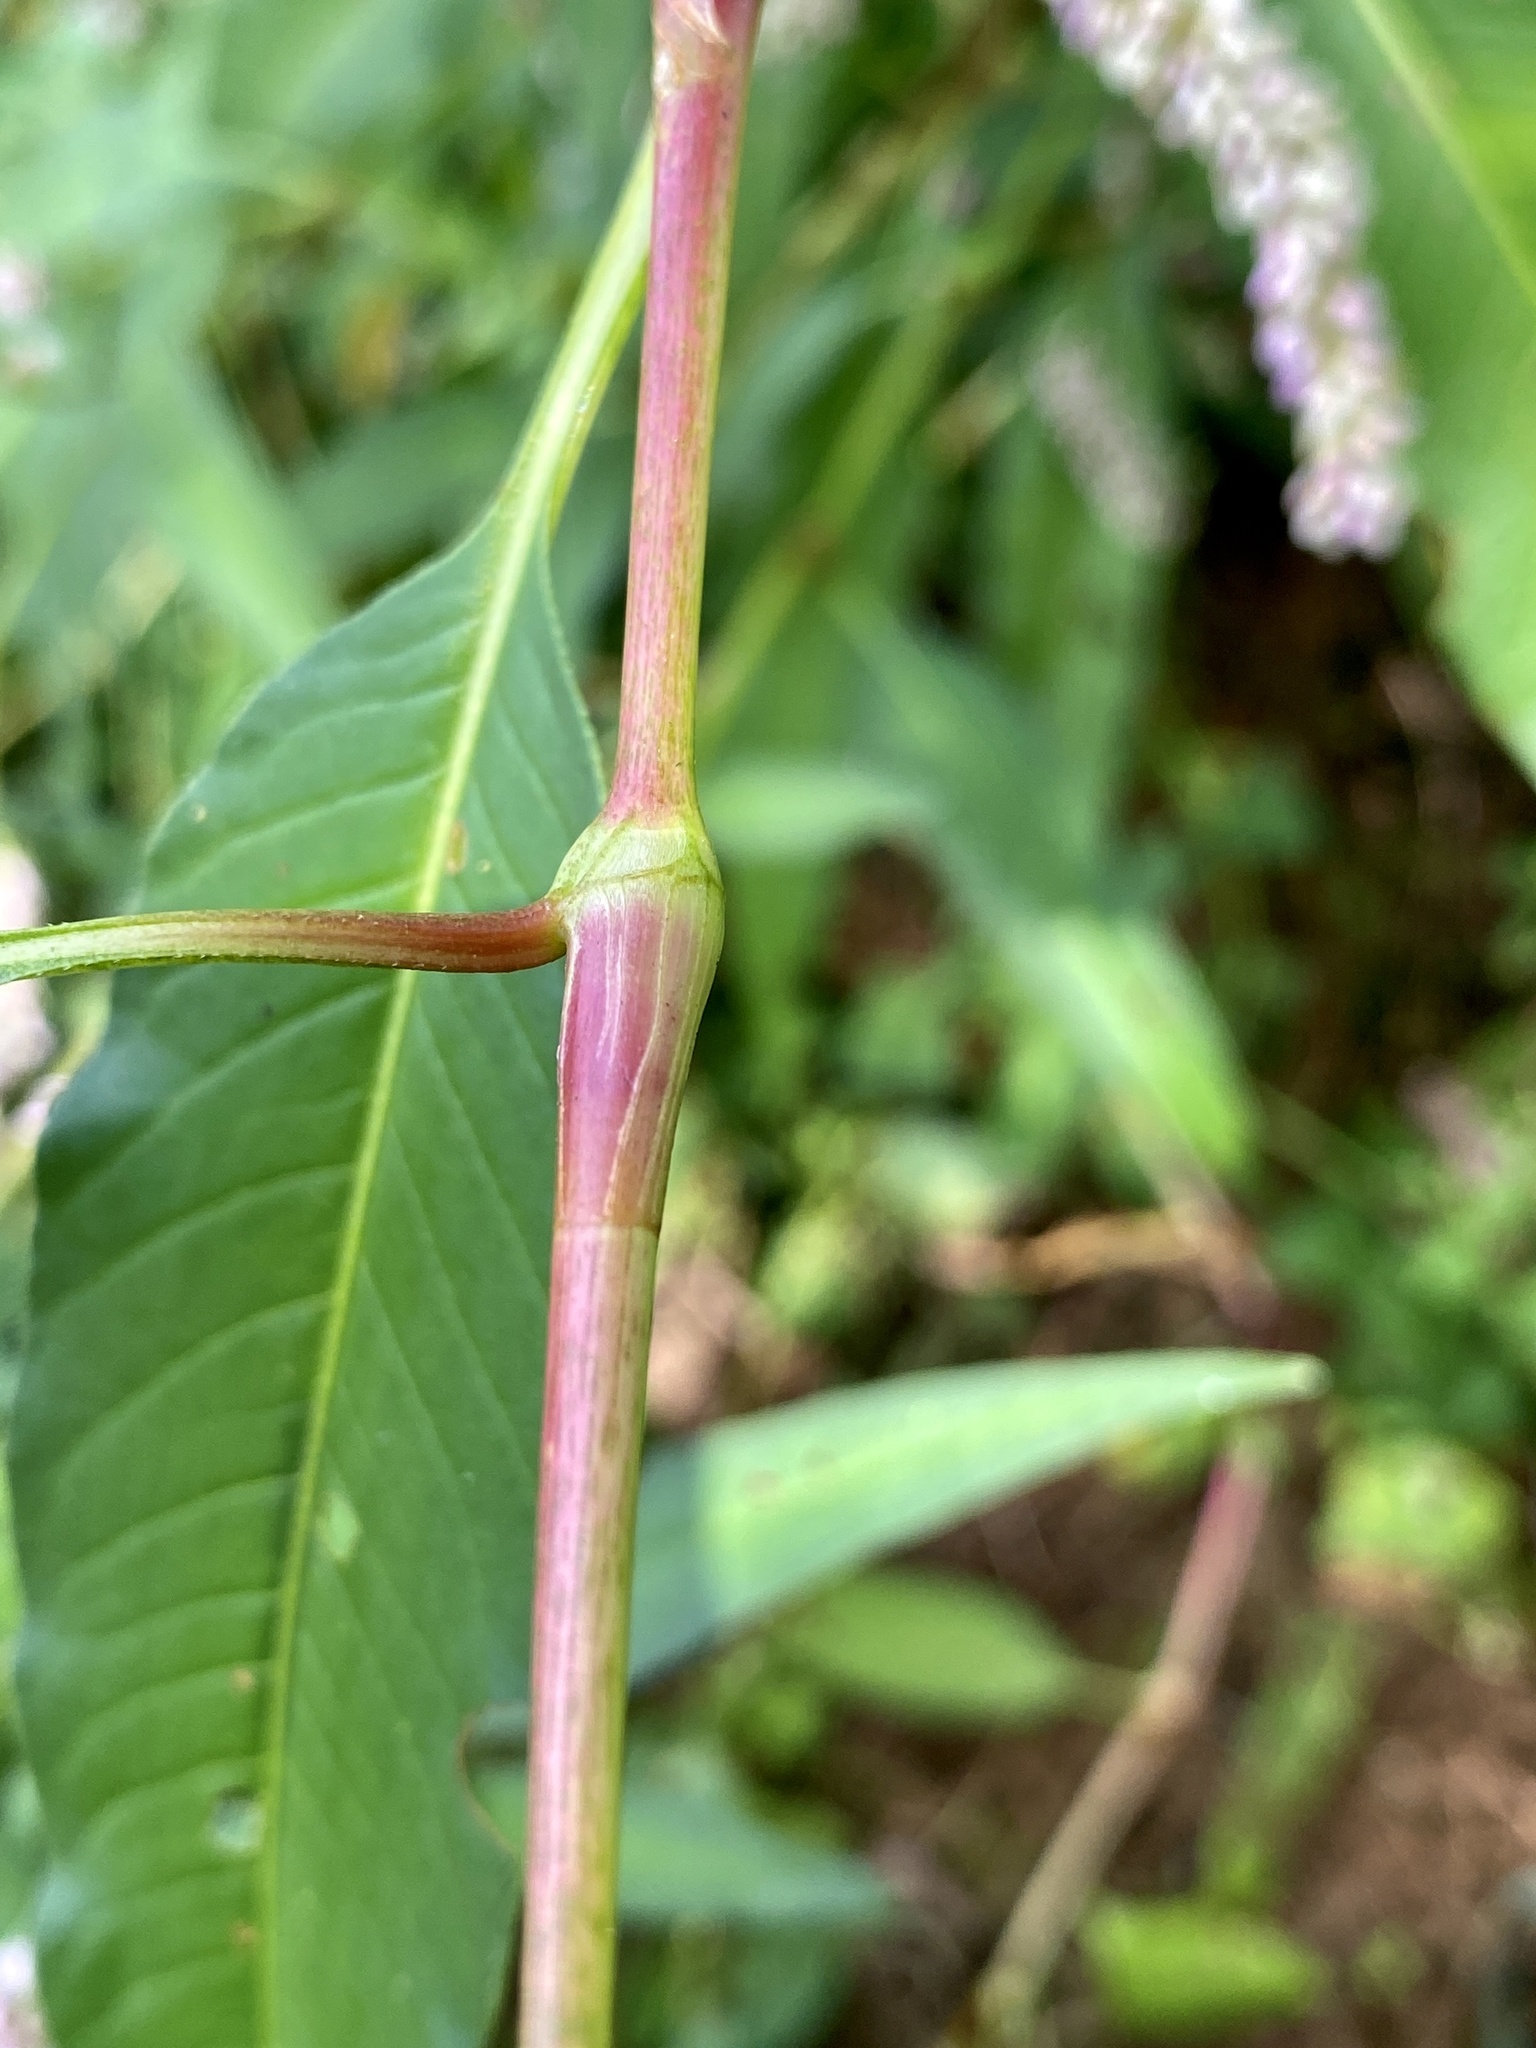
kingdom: Plantae
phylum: Tracheophyta
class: Magnoliopsida
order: Caryophyllales
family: Polygonaceae
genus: Persicaria
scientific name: Persicaria pensylvanica
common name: Pinkweed
